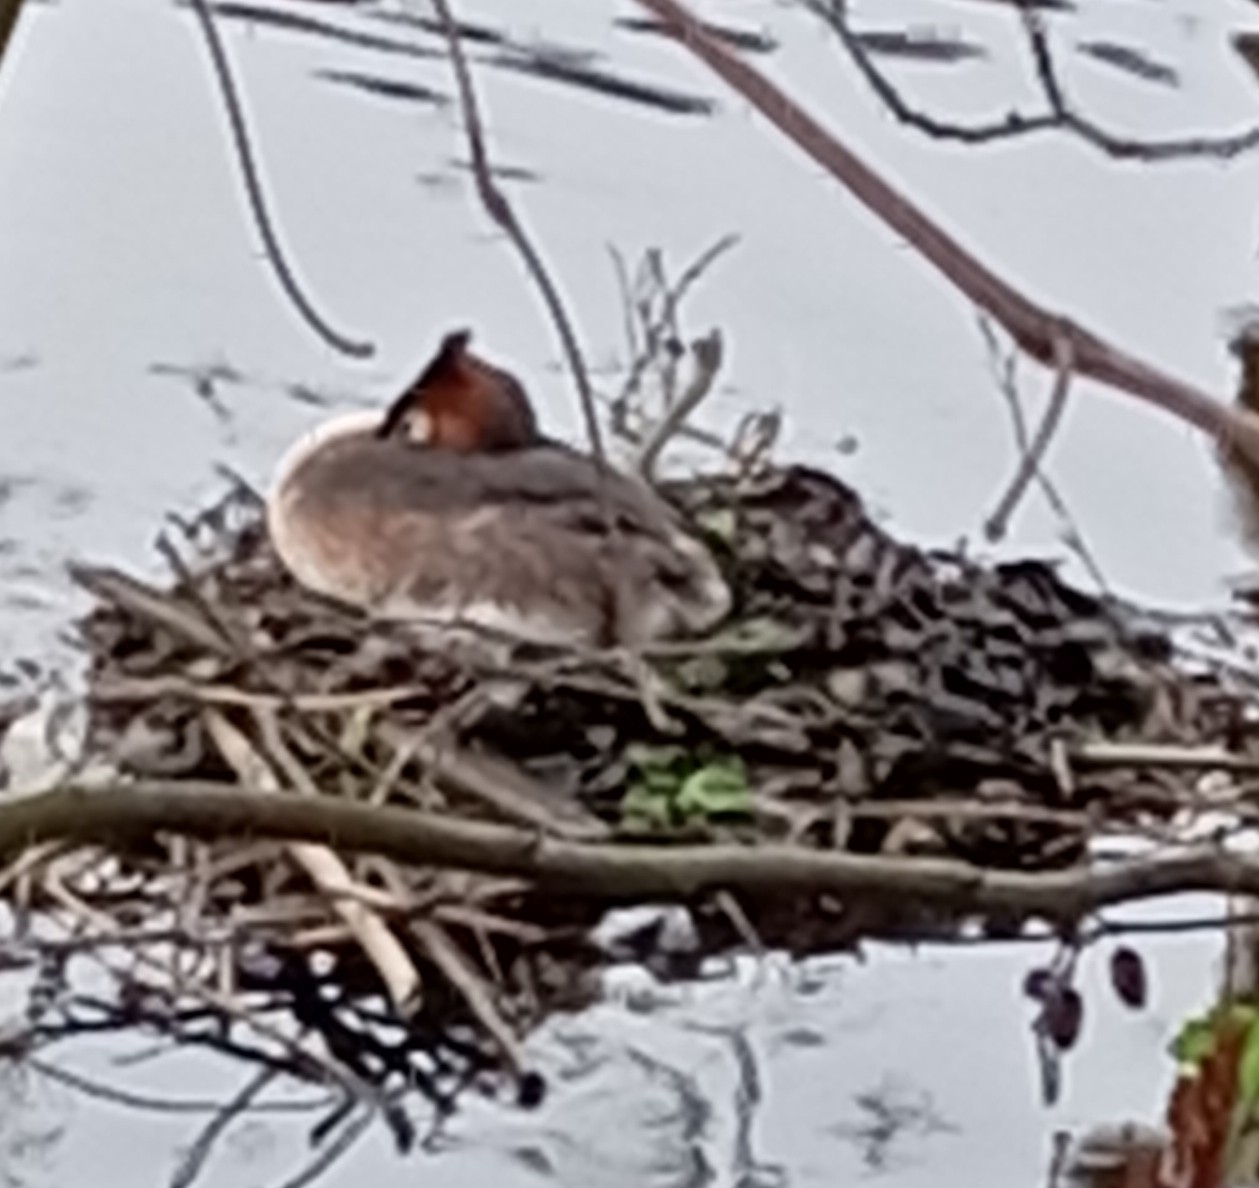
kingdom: Animalia
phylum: Chordata
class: Aves
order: Podicipediformes
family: Podicipedidae
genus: Podiceps
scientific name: Podiceps cristatus
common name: Great crested grebe
